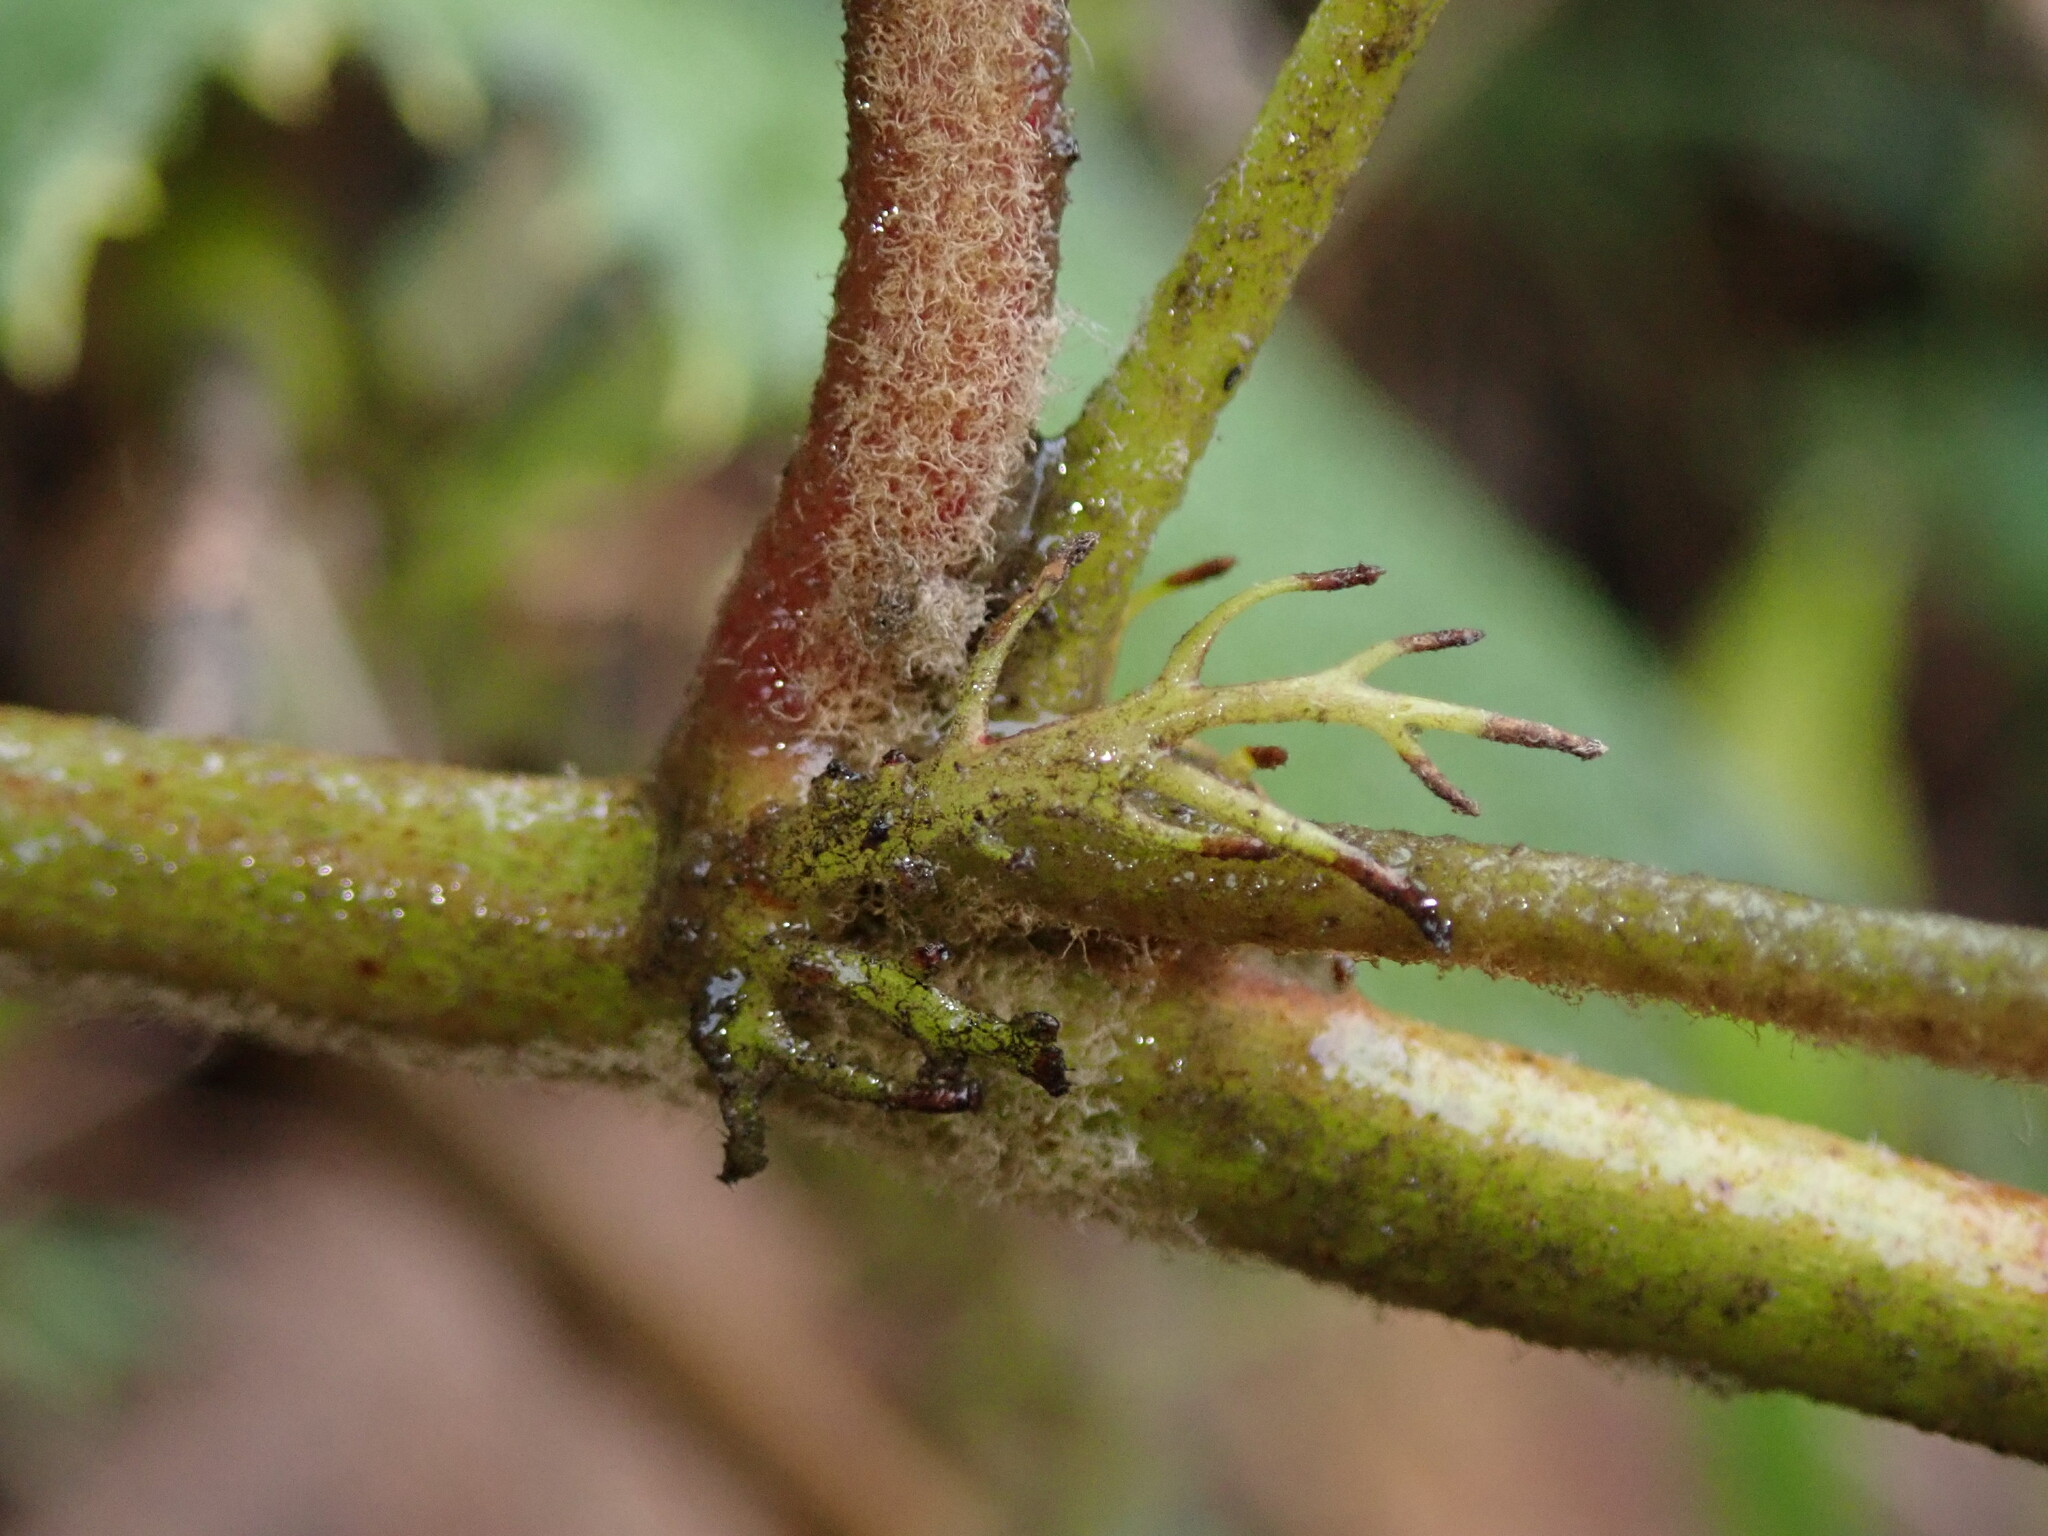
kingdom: Plantae
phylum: Tracheophyta
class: Magnoliopsida
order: Malpighiales
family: Passifloraceae
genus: Passiflora
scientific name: Passiflora pilosicorona
